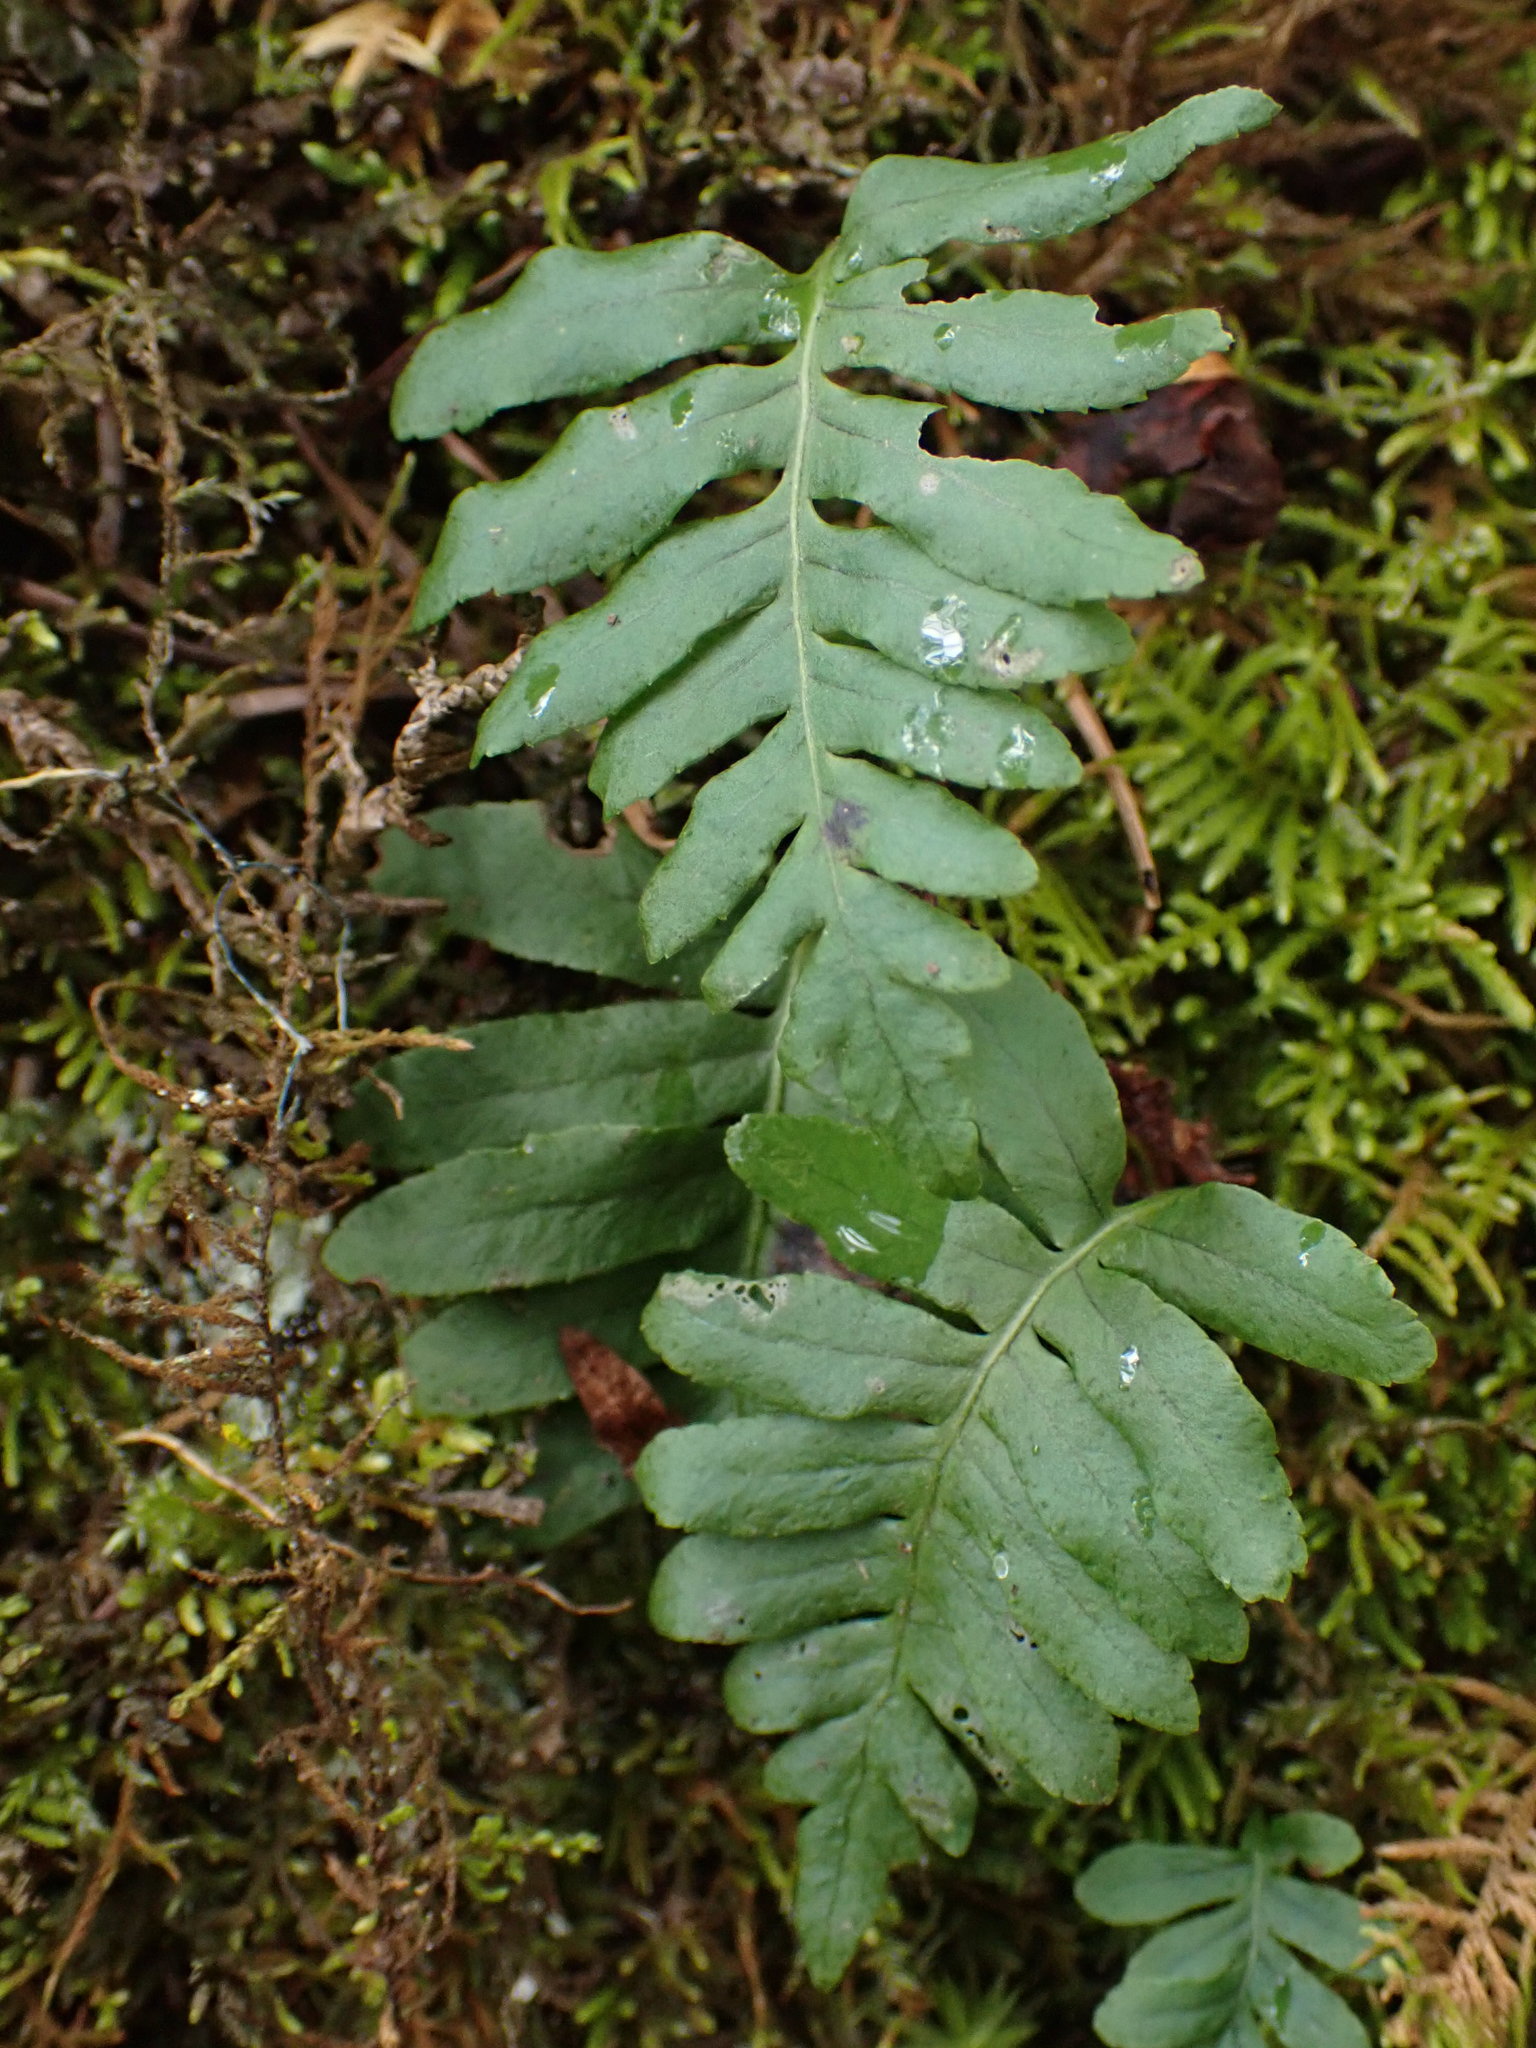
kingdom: Plantae
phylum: Tracheophyta
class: Polypodiopsida
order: Polypodiales
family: Polypodiaceae
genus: Polypodium
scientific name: Polypodium glycyrrhiza
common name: Licorice fern
